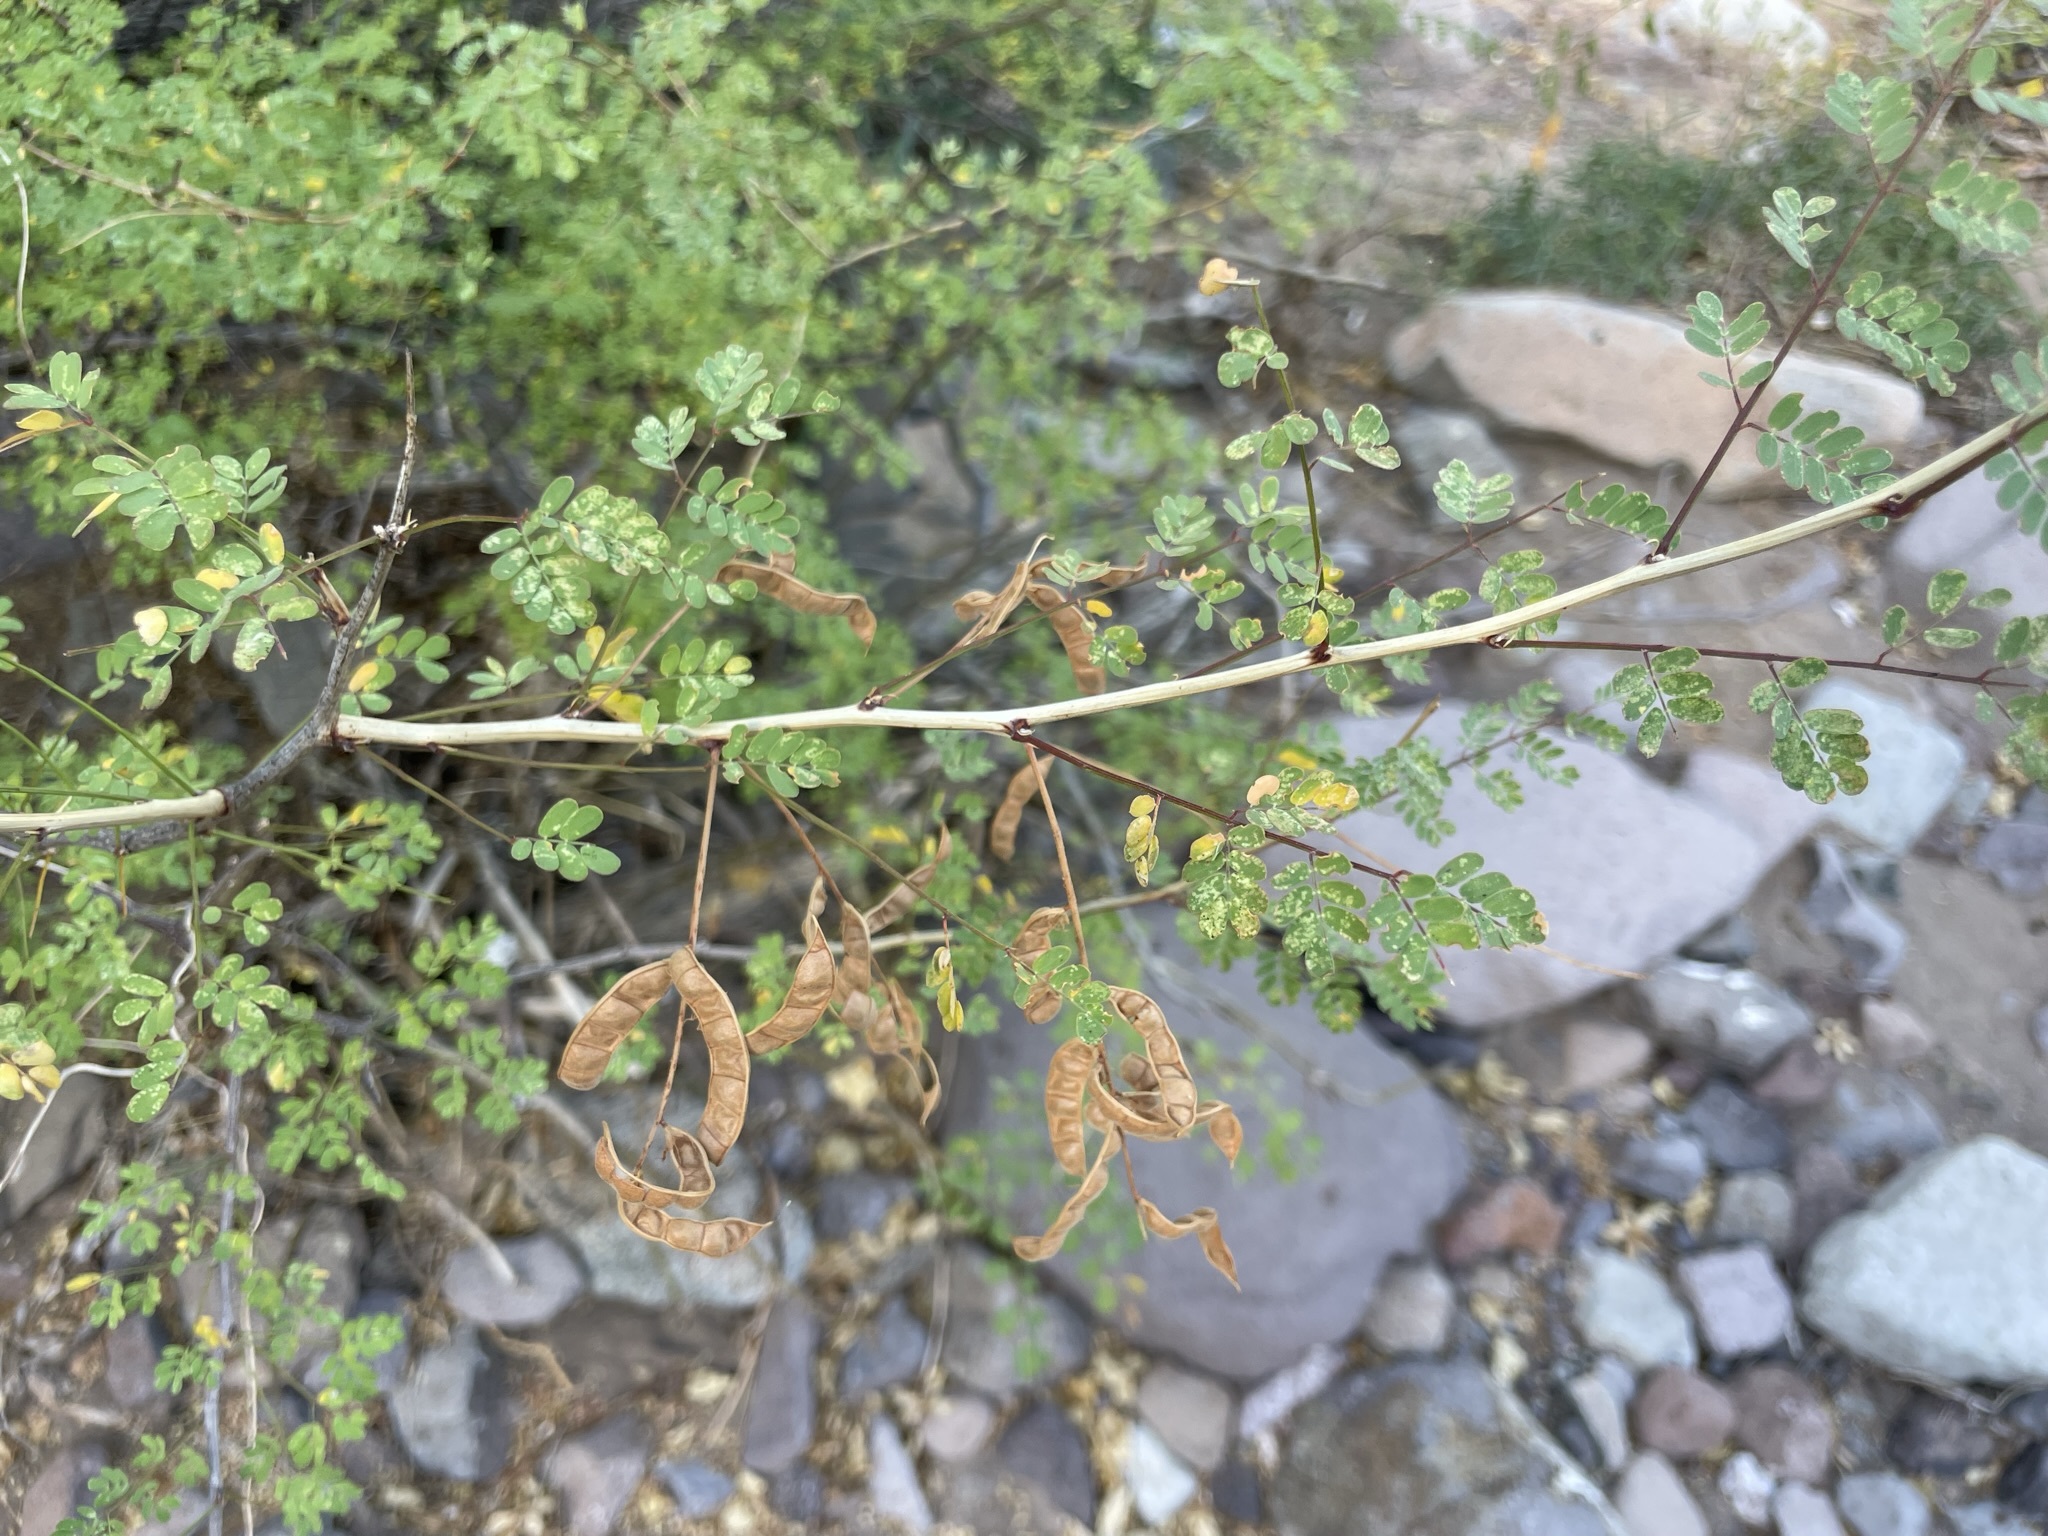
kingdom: Plantae
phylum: Tracheophyta
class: Magnoliopsida
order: Fabales
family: Fabaceae
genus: Mimosa
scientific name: Mimosa distachya
